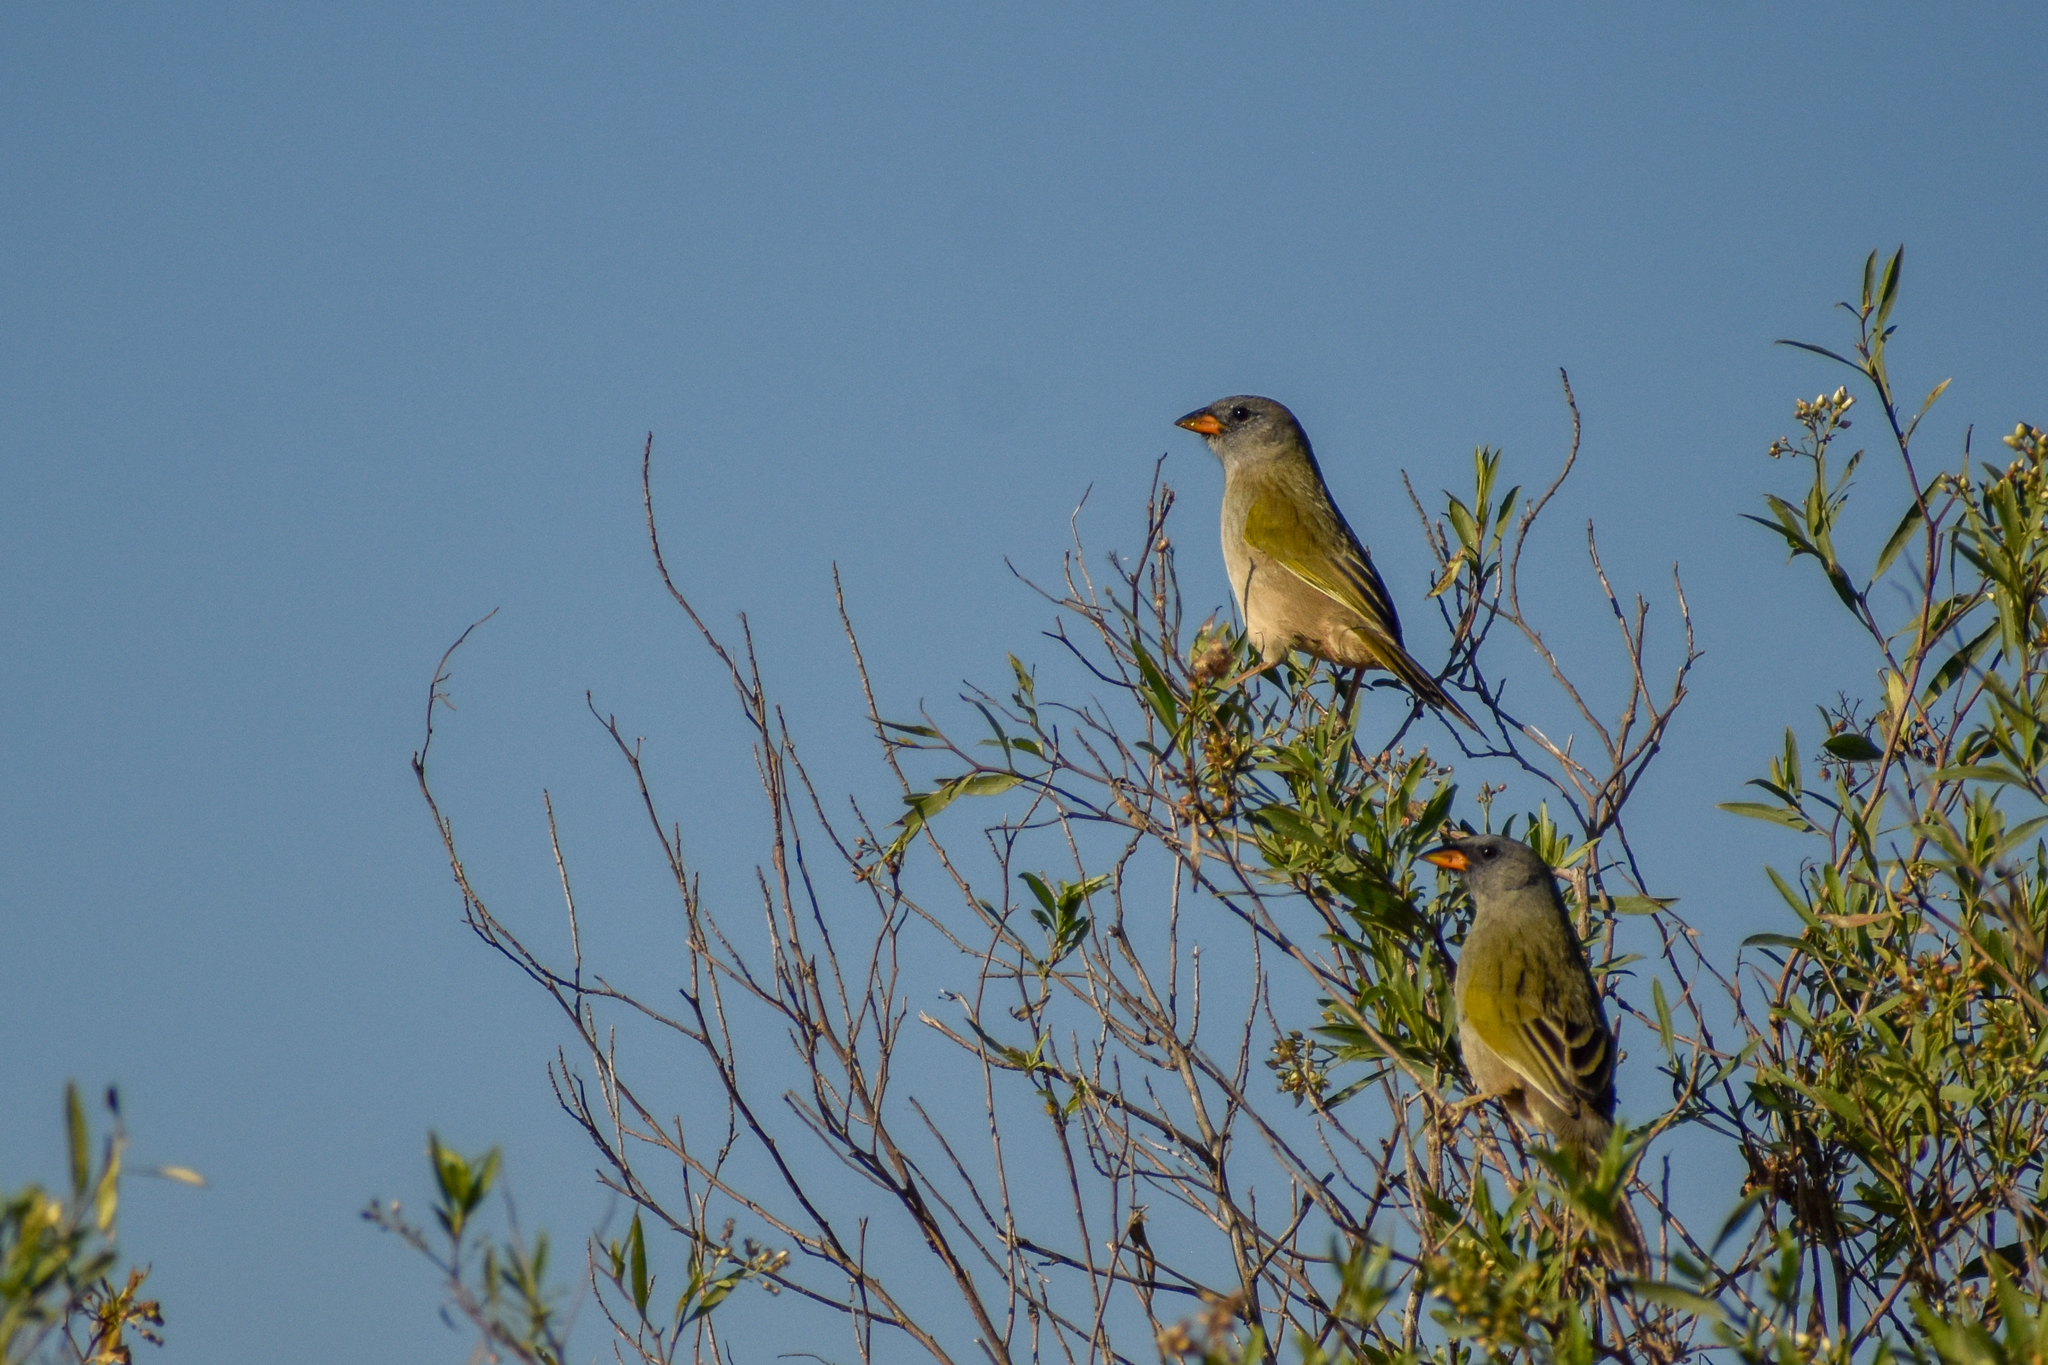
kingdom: Animalia
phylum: Chordata
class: Aves
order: Passeriformes
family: Thraupidae
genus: Embernagra
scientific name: Embernagra platensis
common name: Pampa finch
